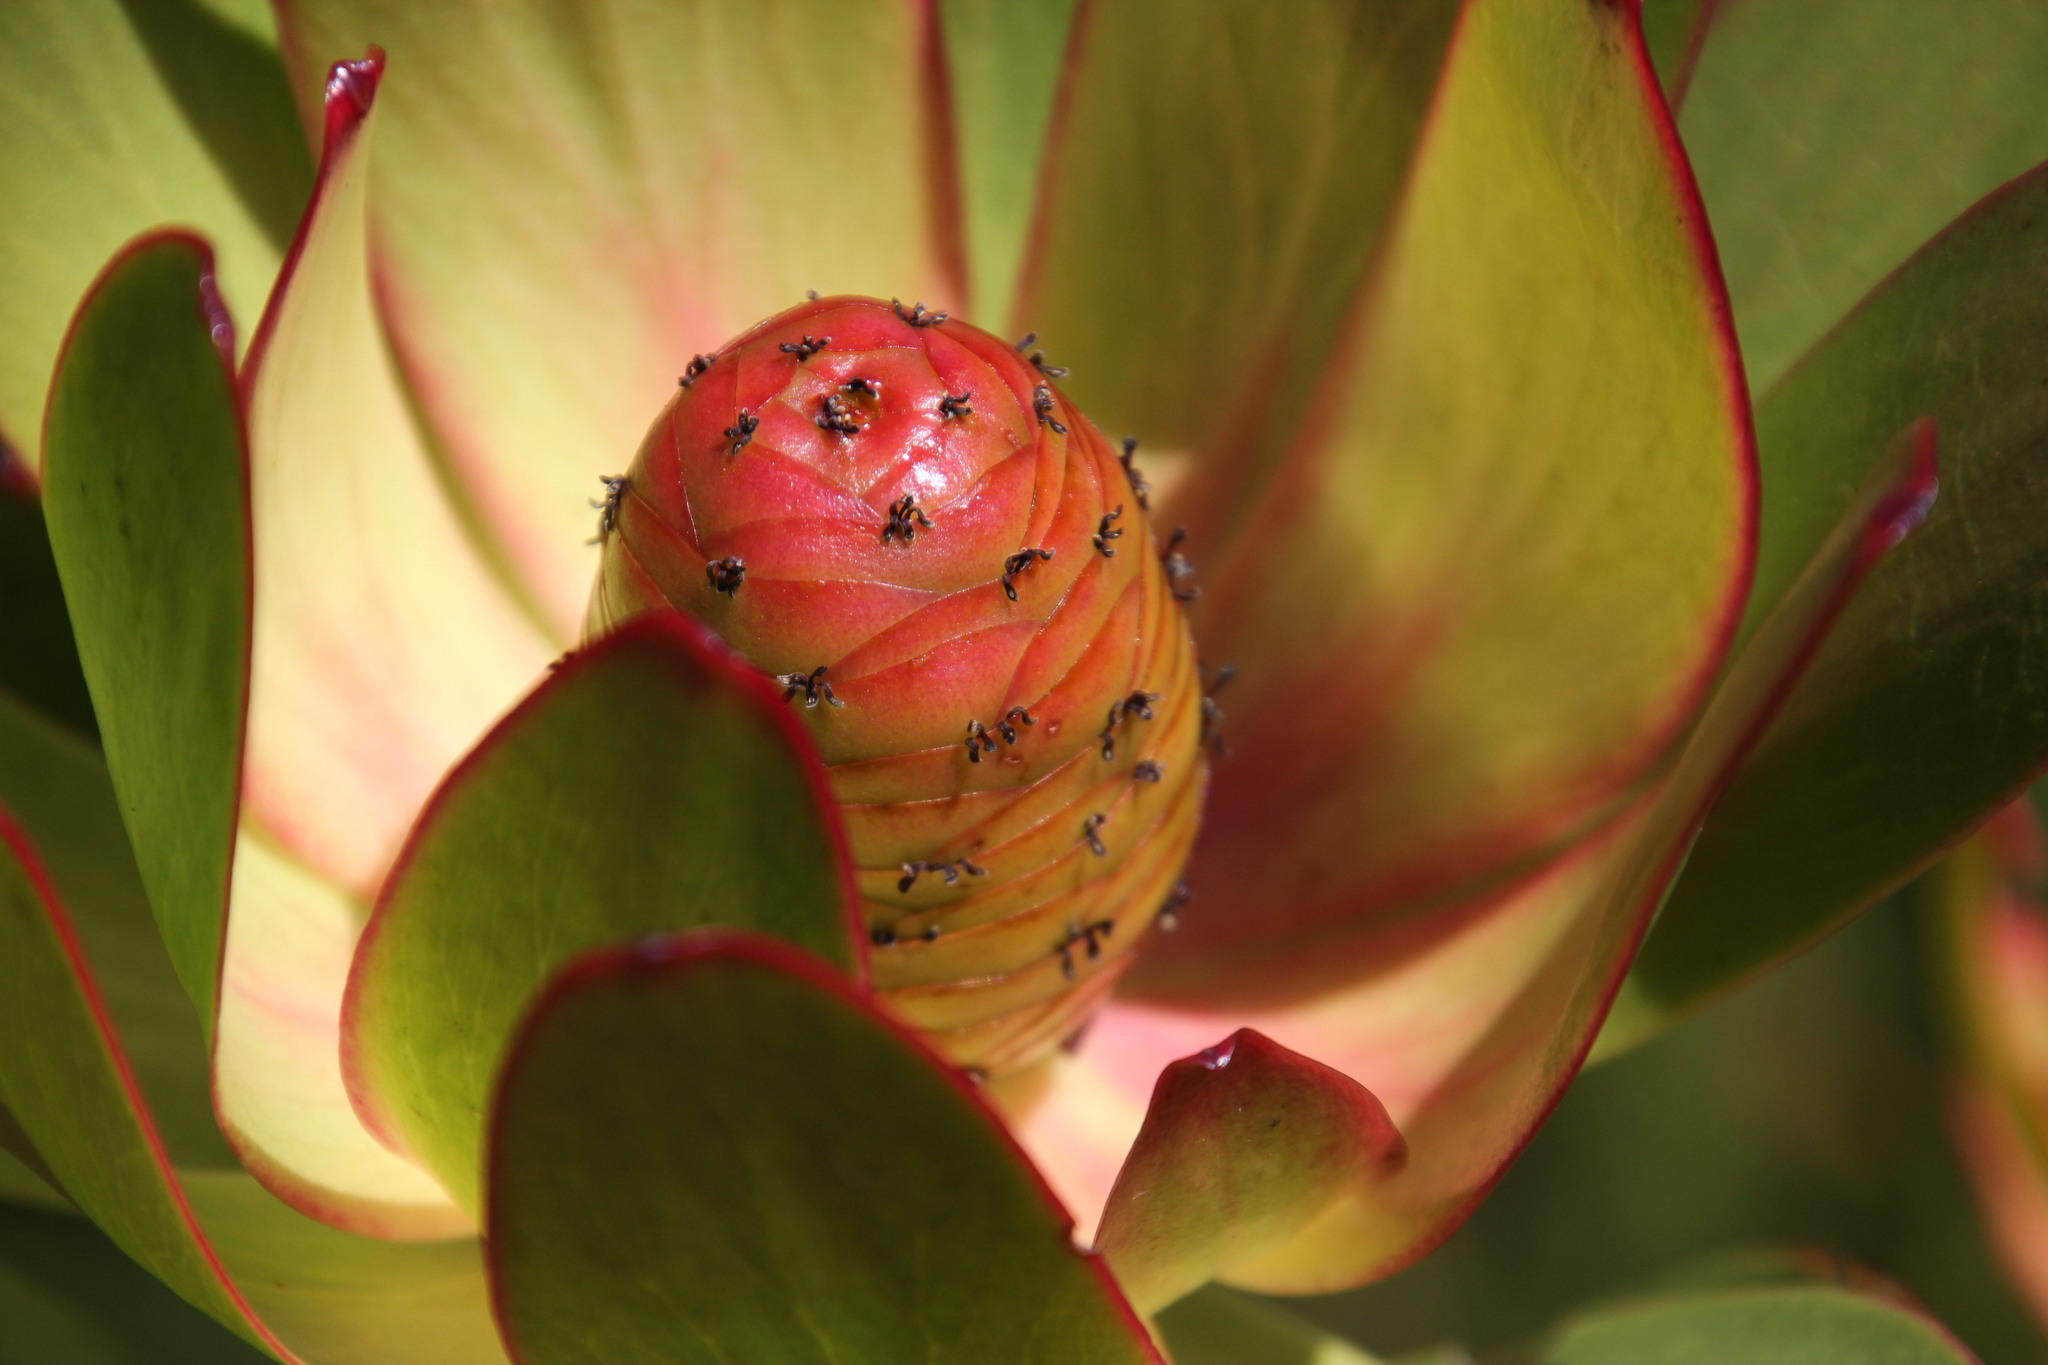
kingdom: Plantae
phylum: Tracheophyta
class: Magnoliopsida
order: Proteales
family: Proteaceae
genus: Leucadendron
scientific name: Leucadendron gandogeri
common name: Broad-leaf conebush
